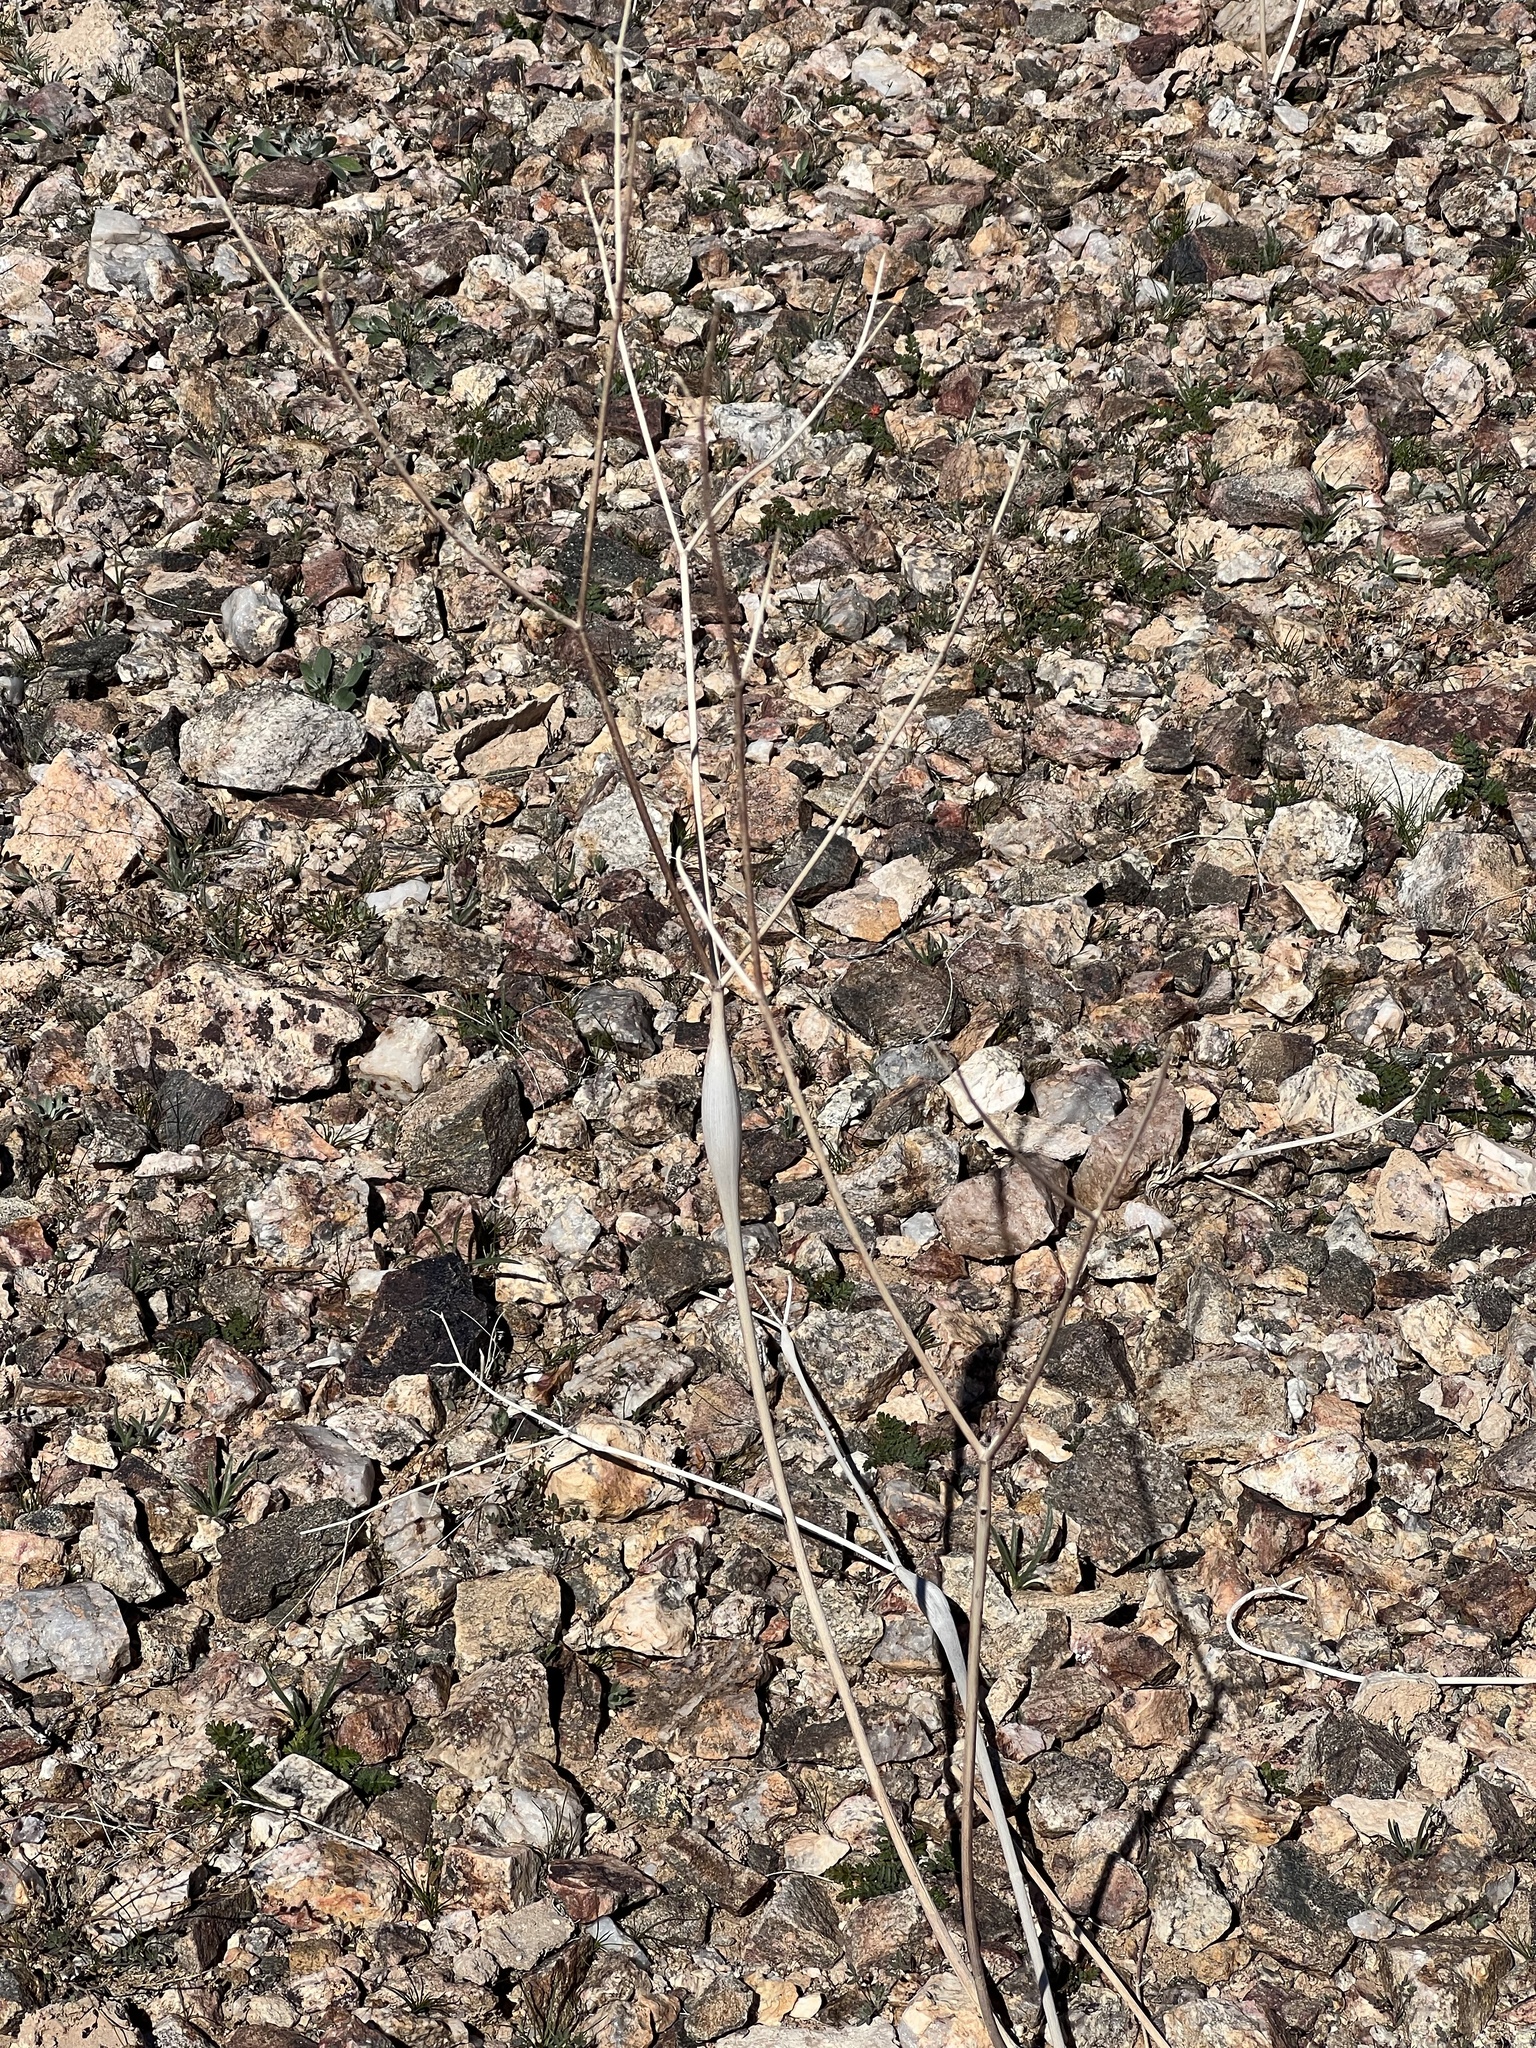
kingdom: Plantae
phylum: Tracheophyta
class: Magnoliopsida
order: Caryophyllales
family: Polygonaceae
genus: Eriogonum
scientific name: Eriogonum inflatum
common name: Desert trumpet
